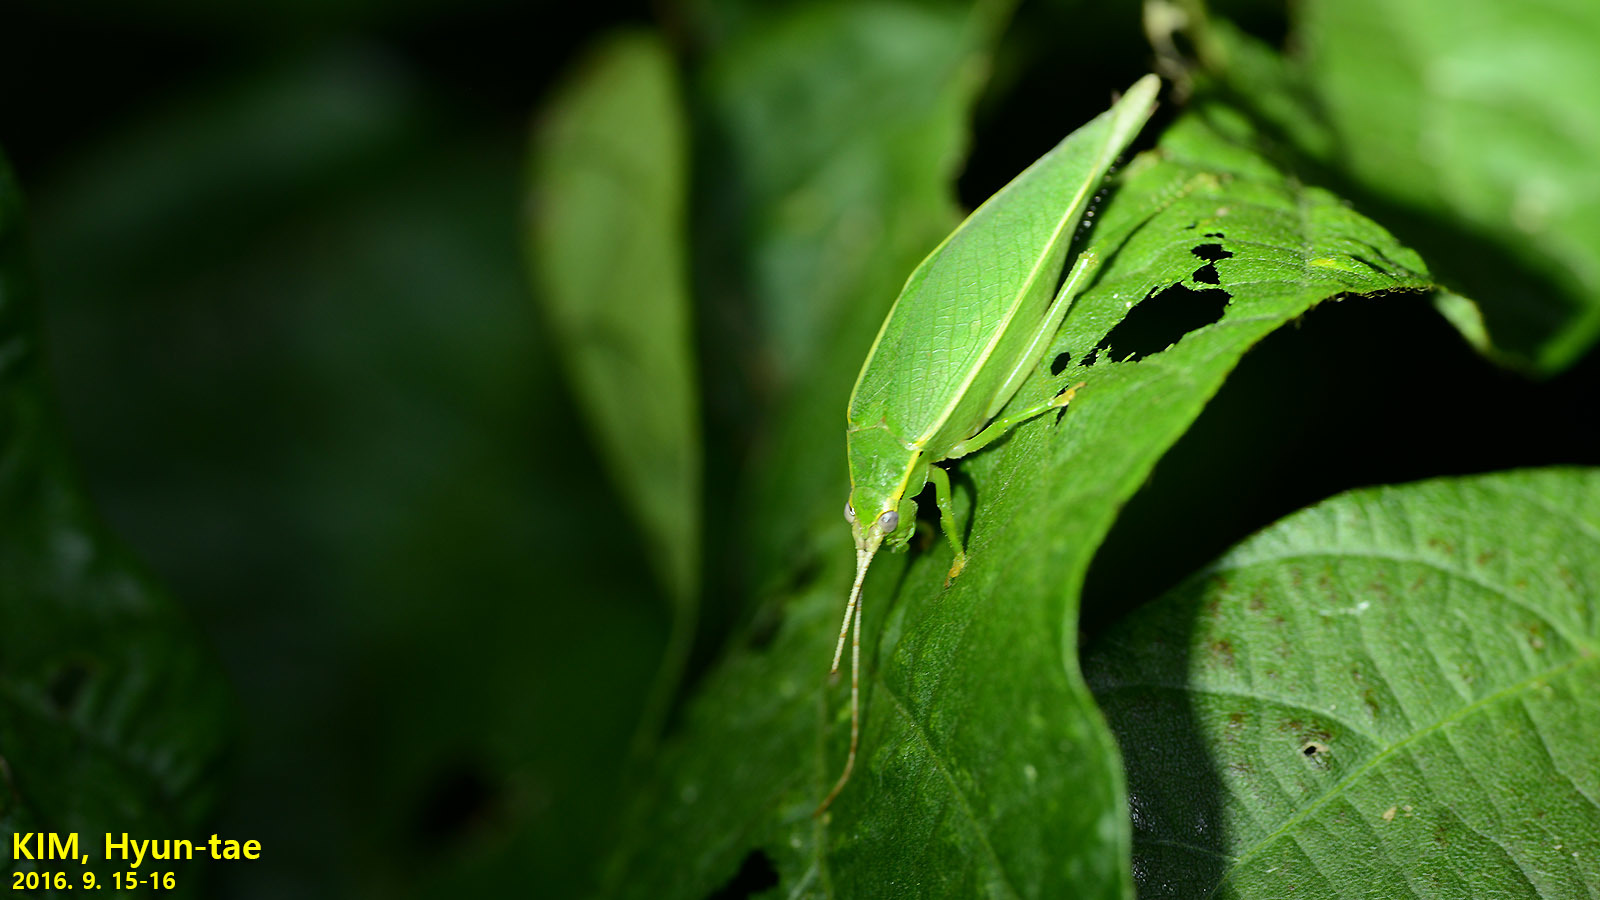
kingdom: Animalia
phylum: Arthropoda
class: Insecta
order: Orthoptera
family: Gryllidae
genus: Truljalia
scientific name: Truljalia hibinonis
